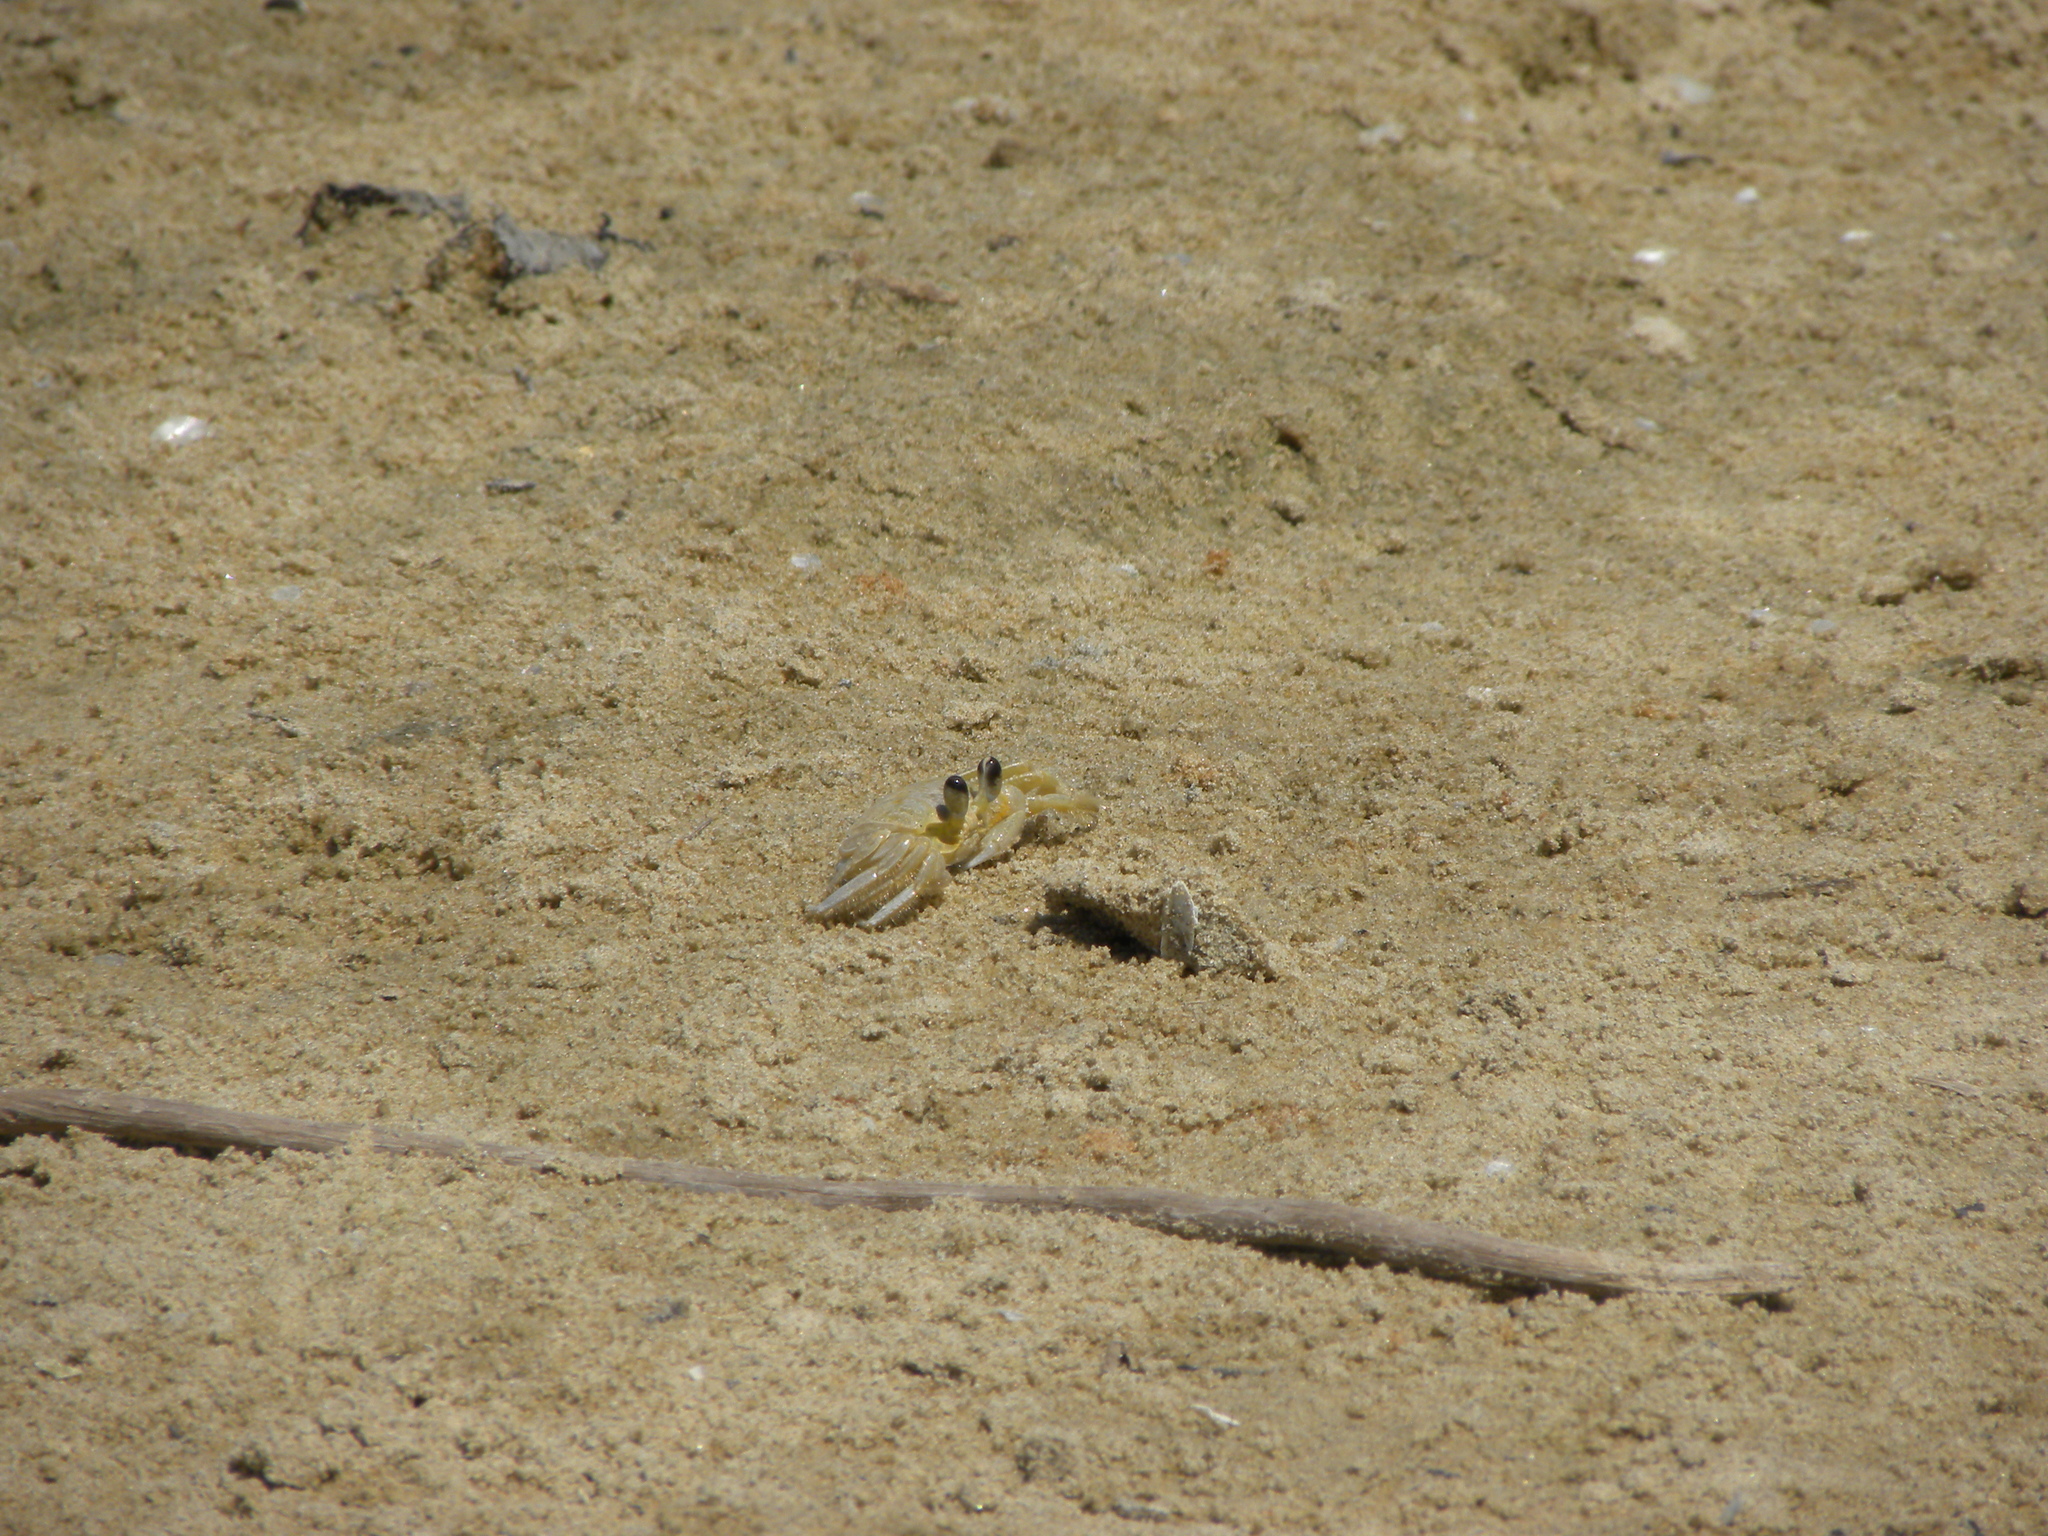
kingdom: Animalia
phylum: Arthropoda
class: Malacostraca
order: Decapoda
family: Ocypodidae
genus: Ocypode
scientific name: Ocypode quadrata
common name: Ghost crab
